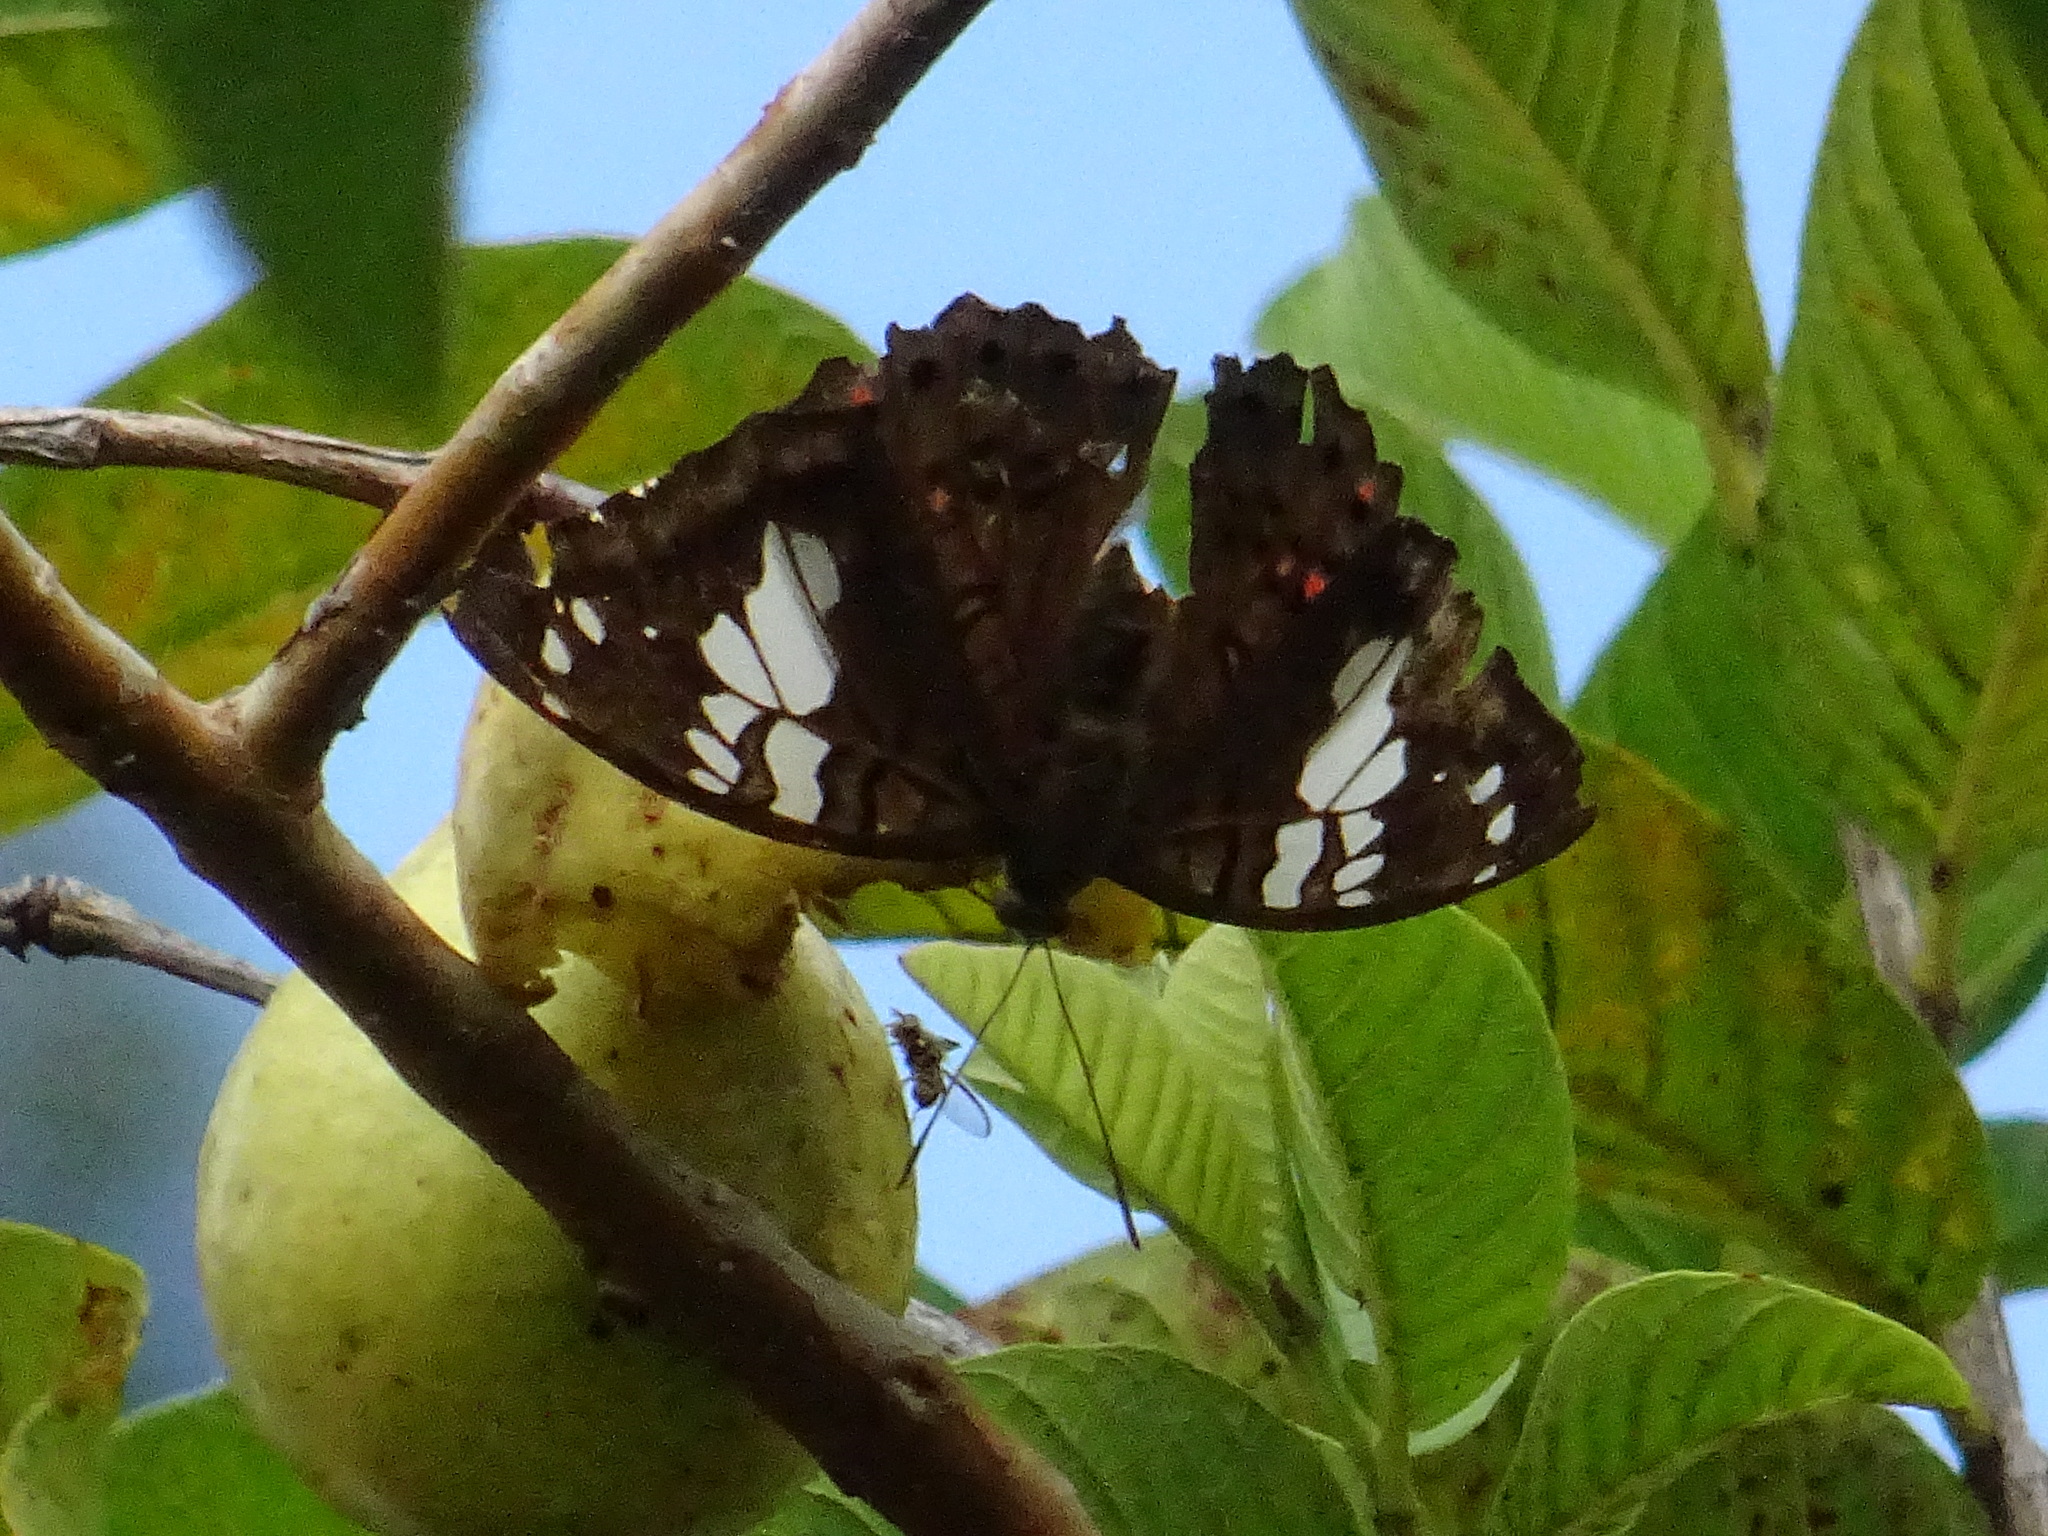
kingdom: Animalia
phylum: Arthropoda
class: Insecta
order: Lepidoptera
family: Nymphalidae
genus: Euthalia
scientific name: Euthalia malaccana
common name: Fruhstorfer's baron
